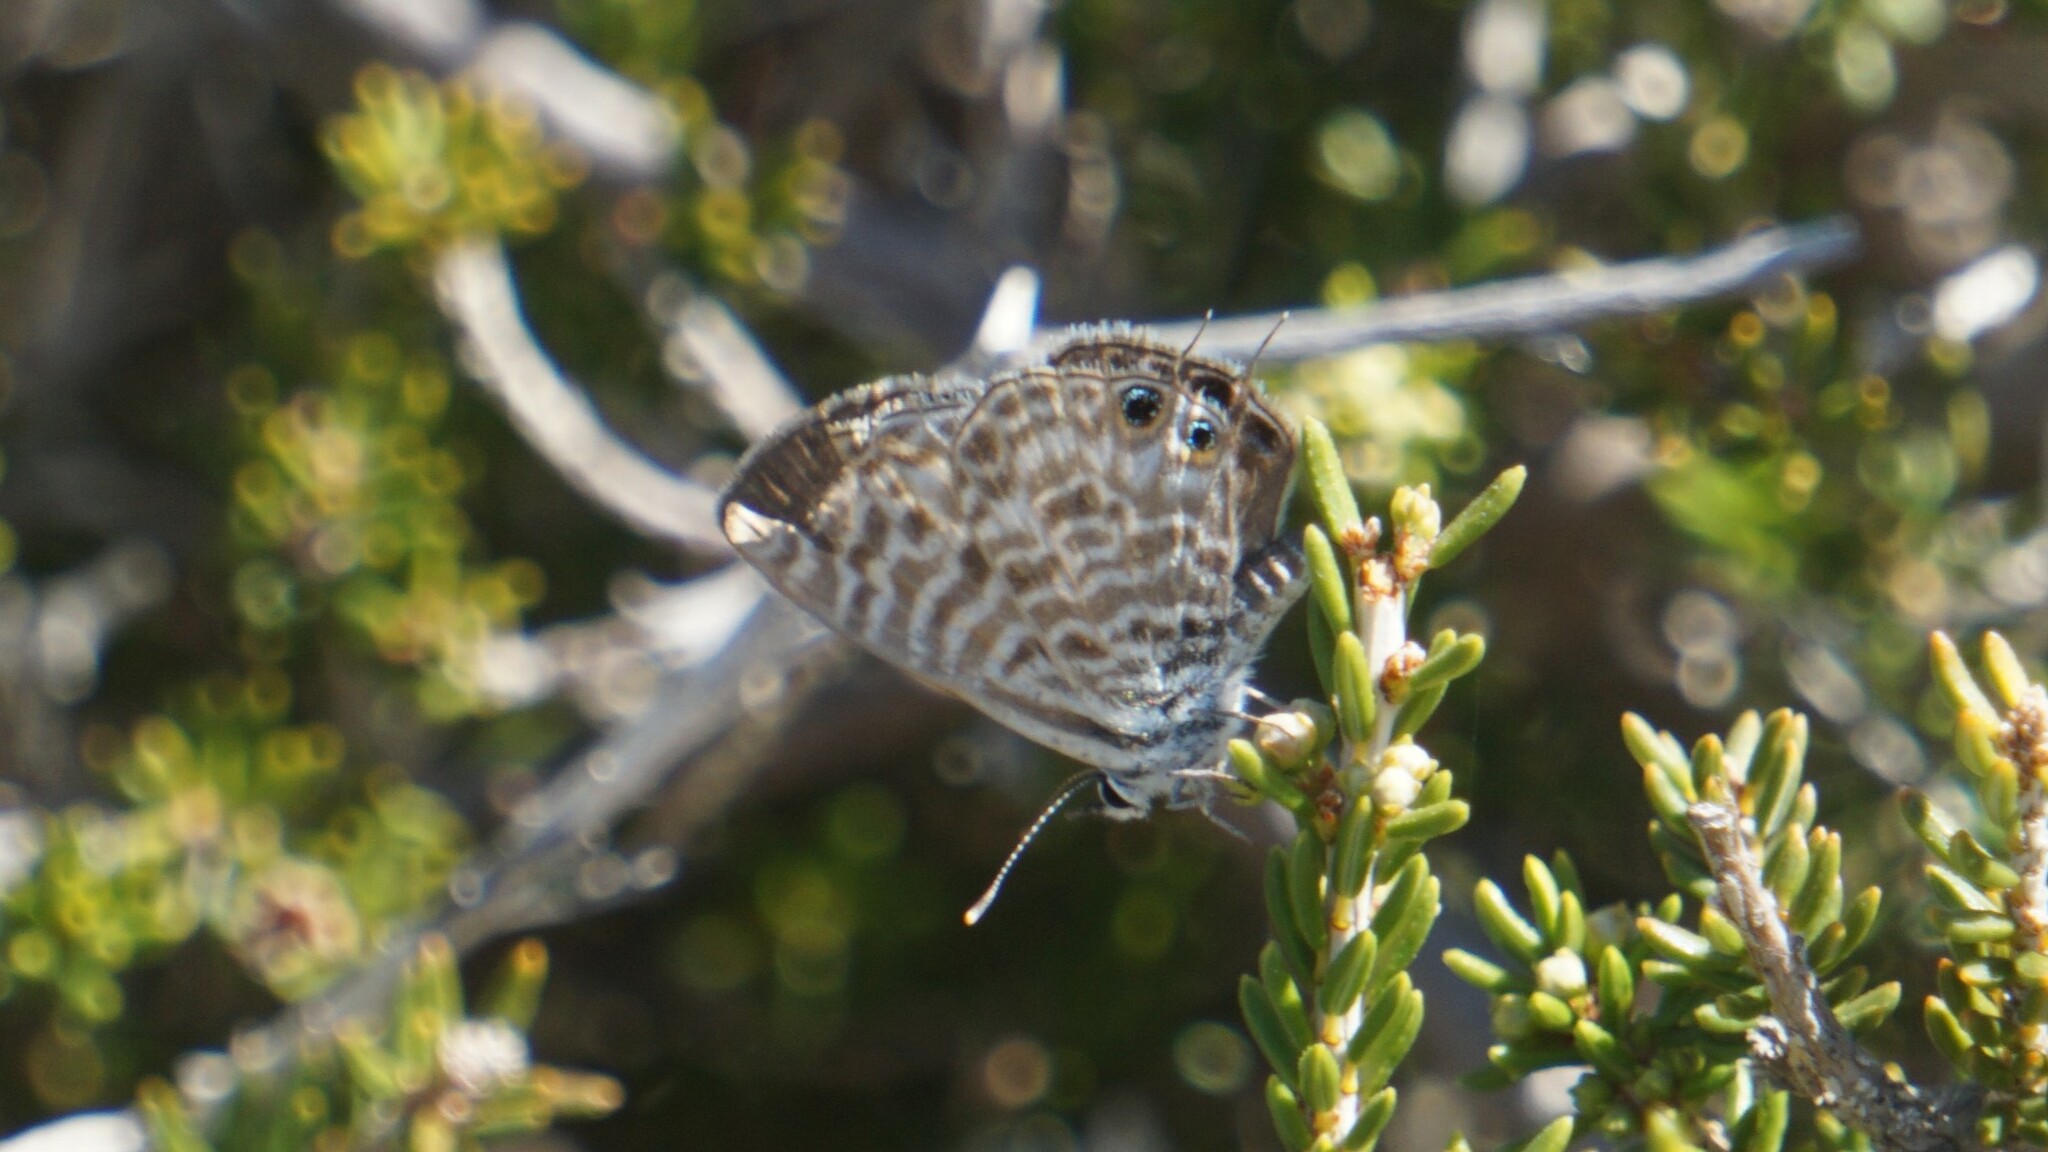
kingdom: Animalia
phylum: Arthropoda
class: Insecta
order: Lepidoptera
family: Lycaenidae
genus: Leptotes
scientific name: Leptotes pirithous
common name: Lang's short-tailed blue
